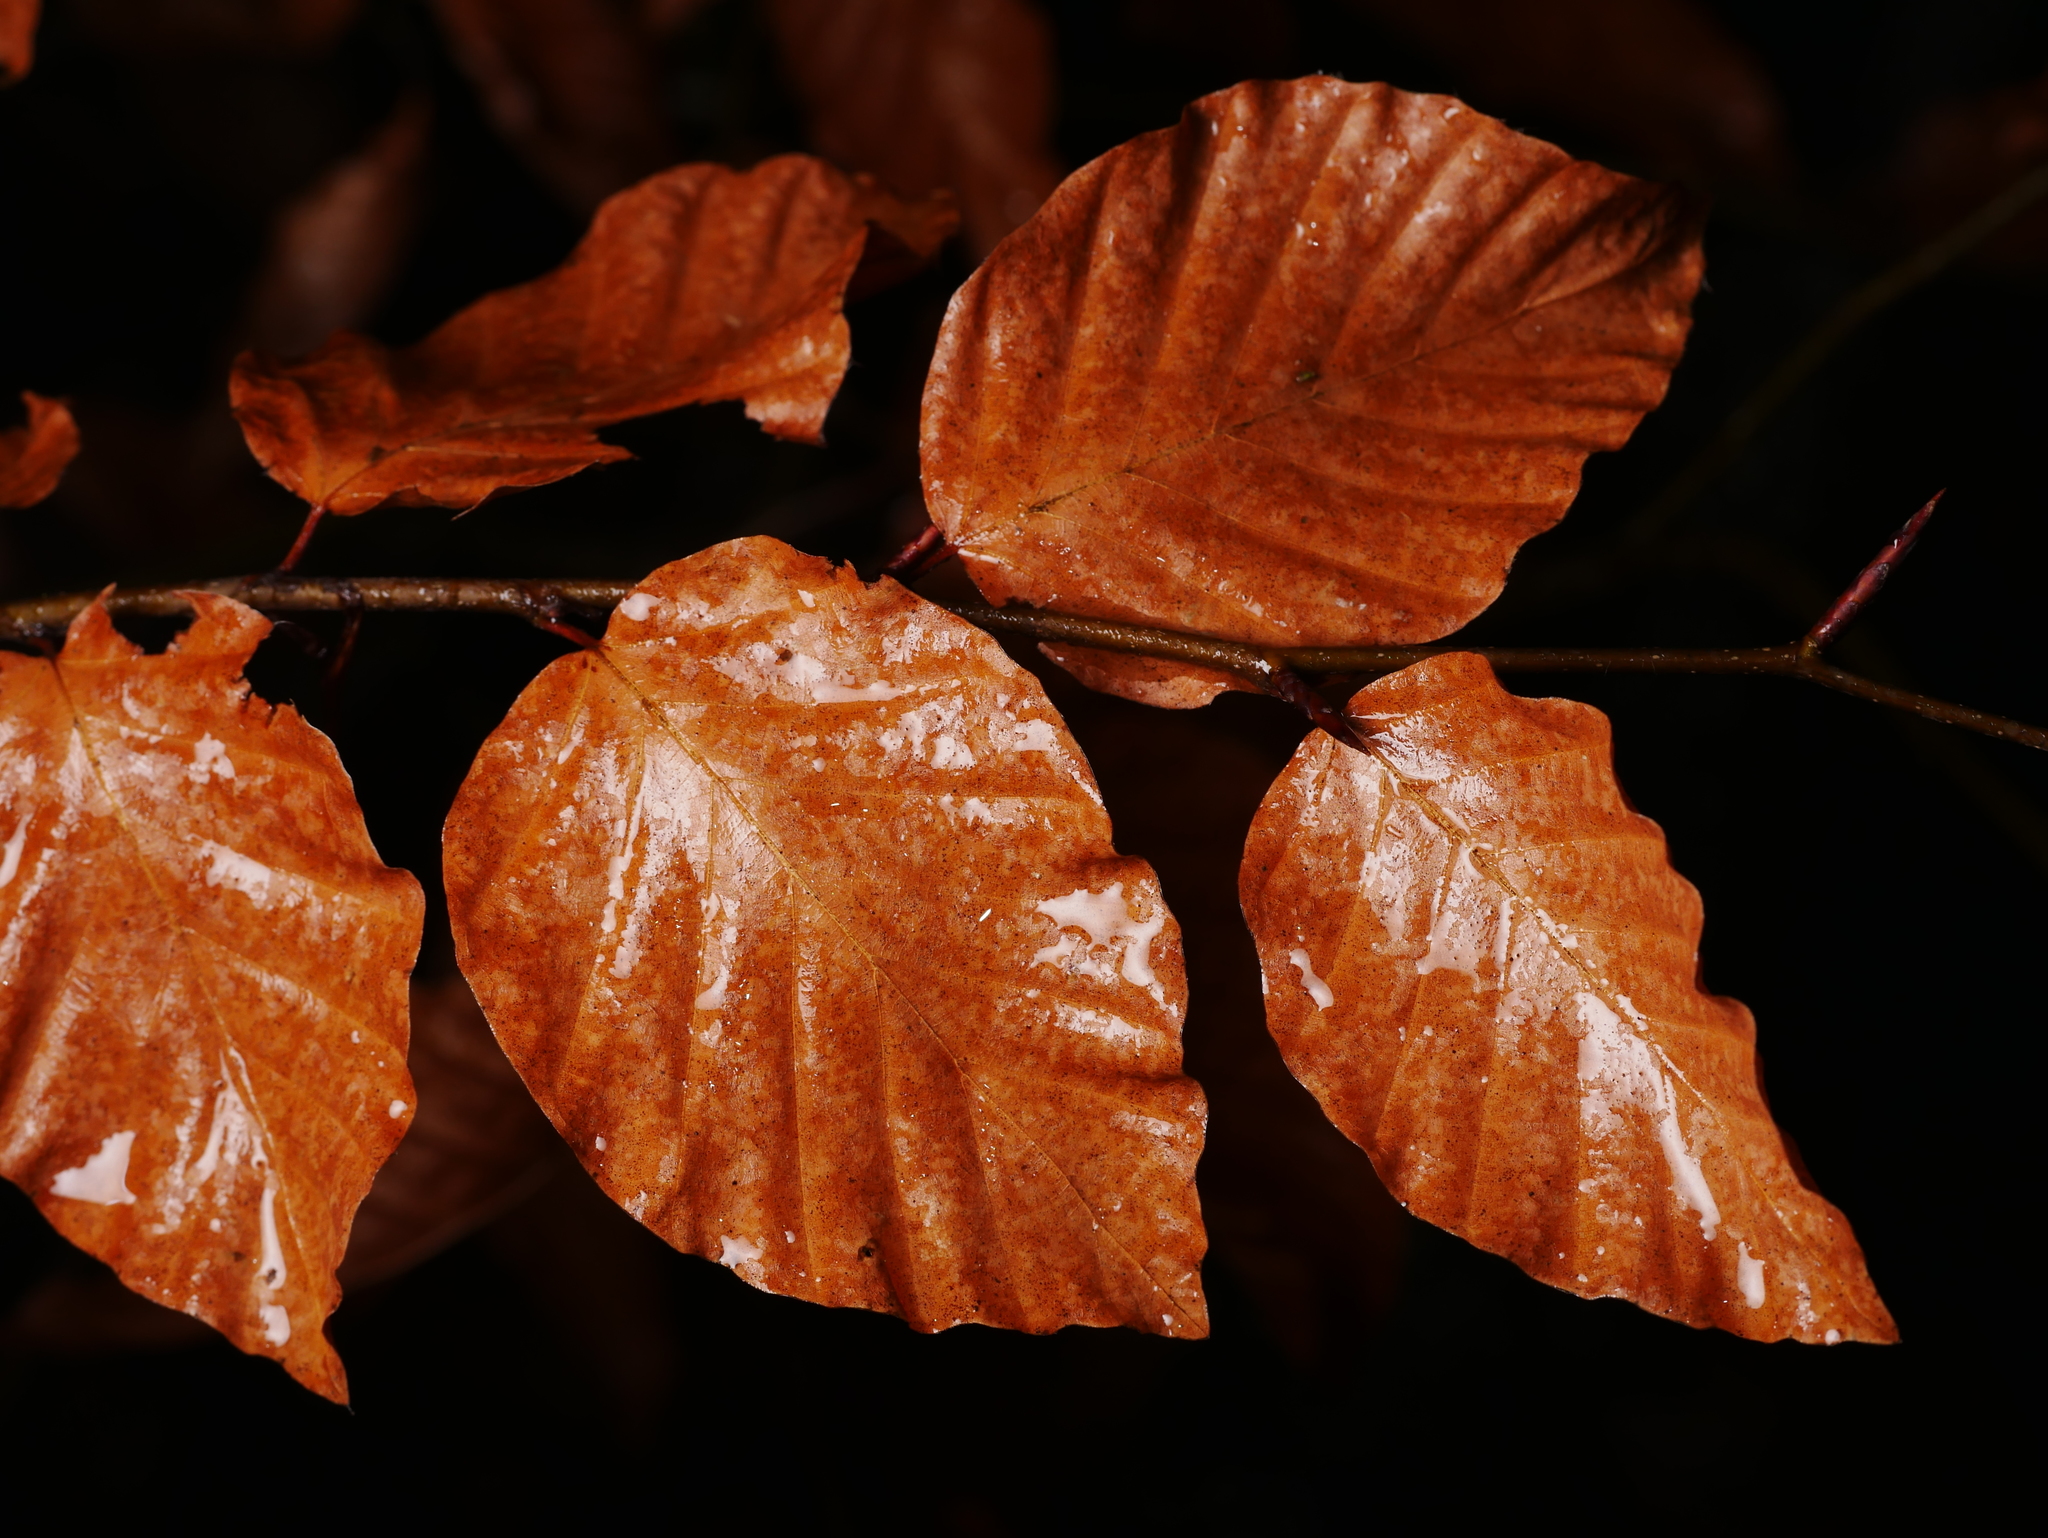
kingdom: Plantae
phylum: Tracheophyta
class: Magnoliopsida
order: Fagales
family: Fagaceae
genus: Fagus
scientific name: Fagus sylvatica
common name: Beech
